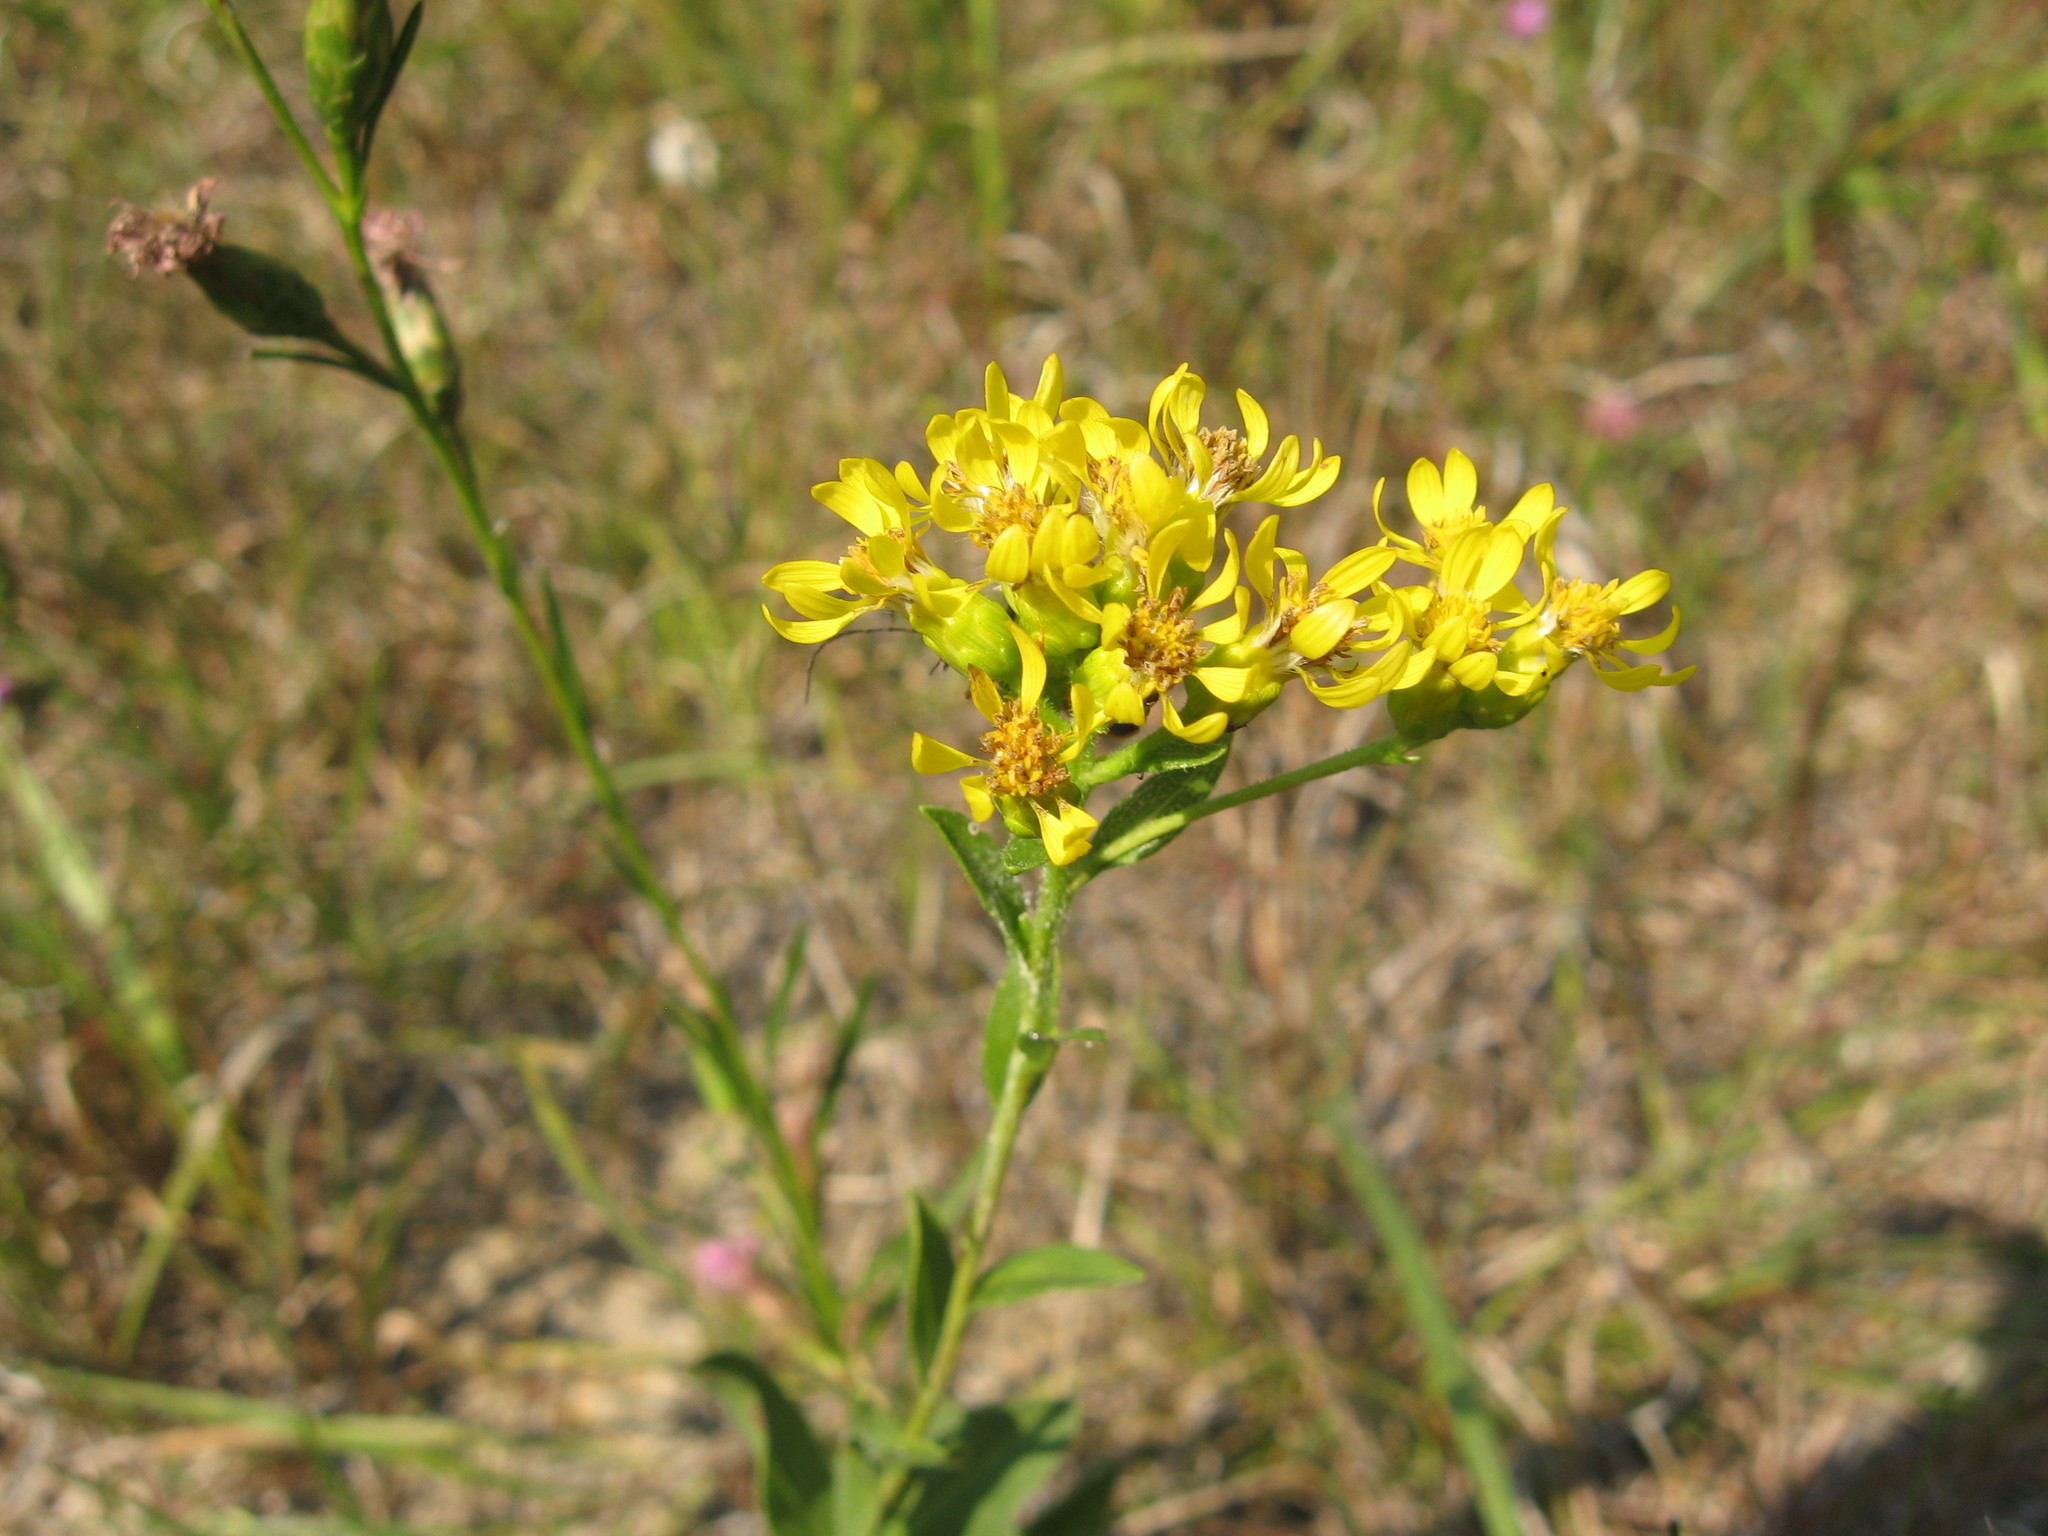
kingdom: Plantae
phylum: Tracheophyta
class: Magnoliopsida
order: Asterales
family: Asteraceae
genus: Solidago
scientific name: Solidago rigida
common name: Rigid goldenrod
